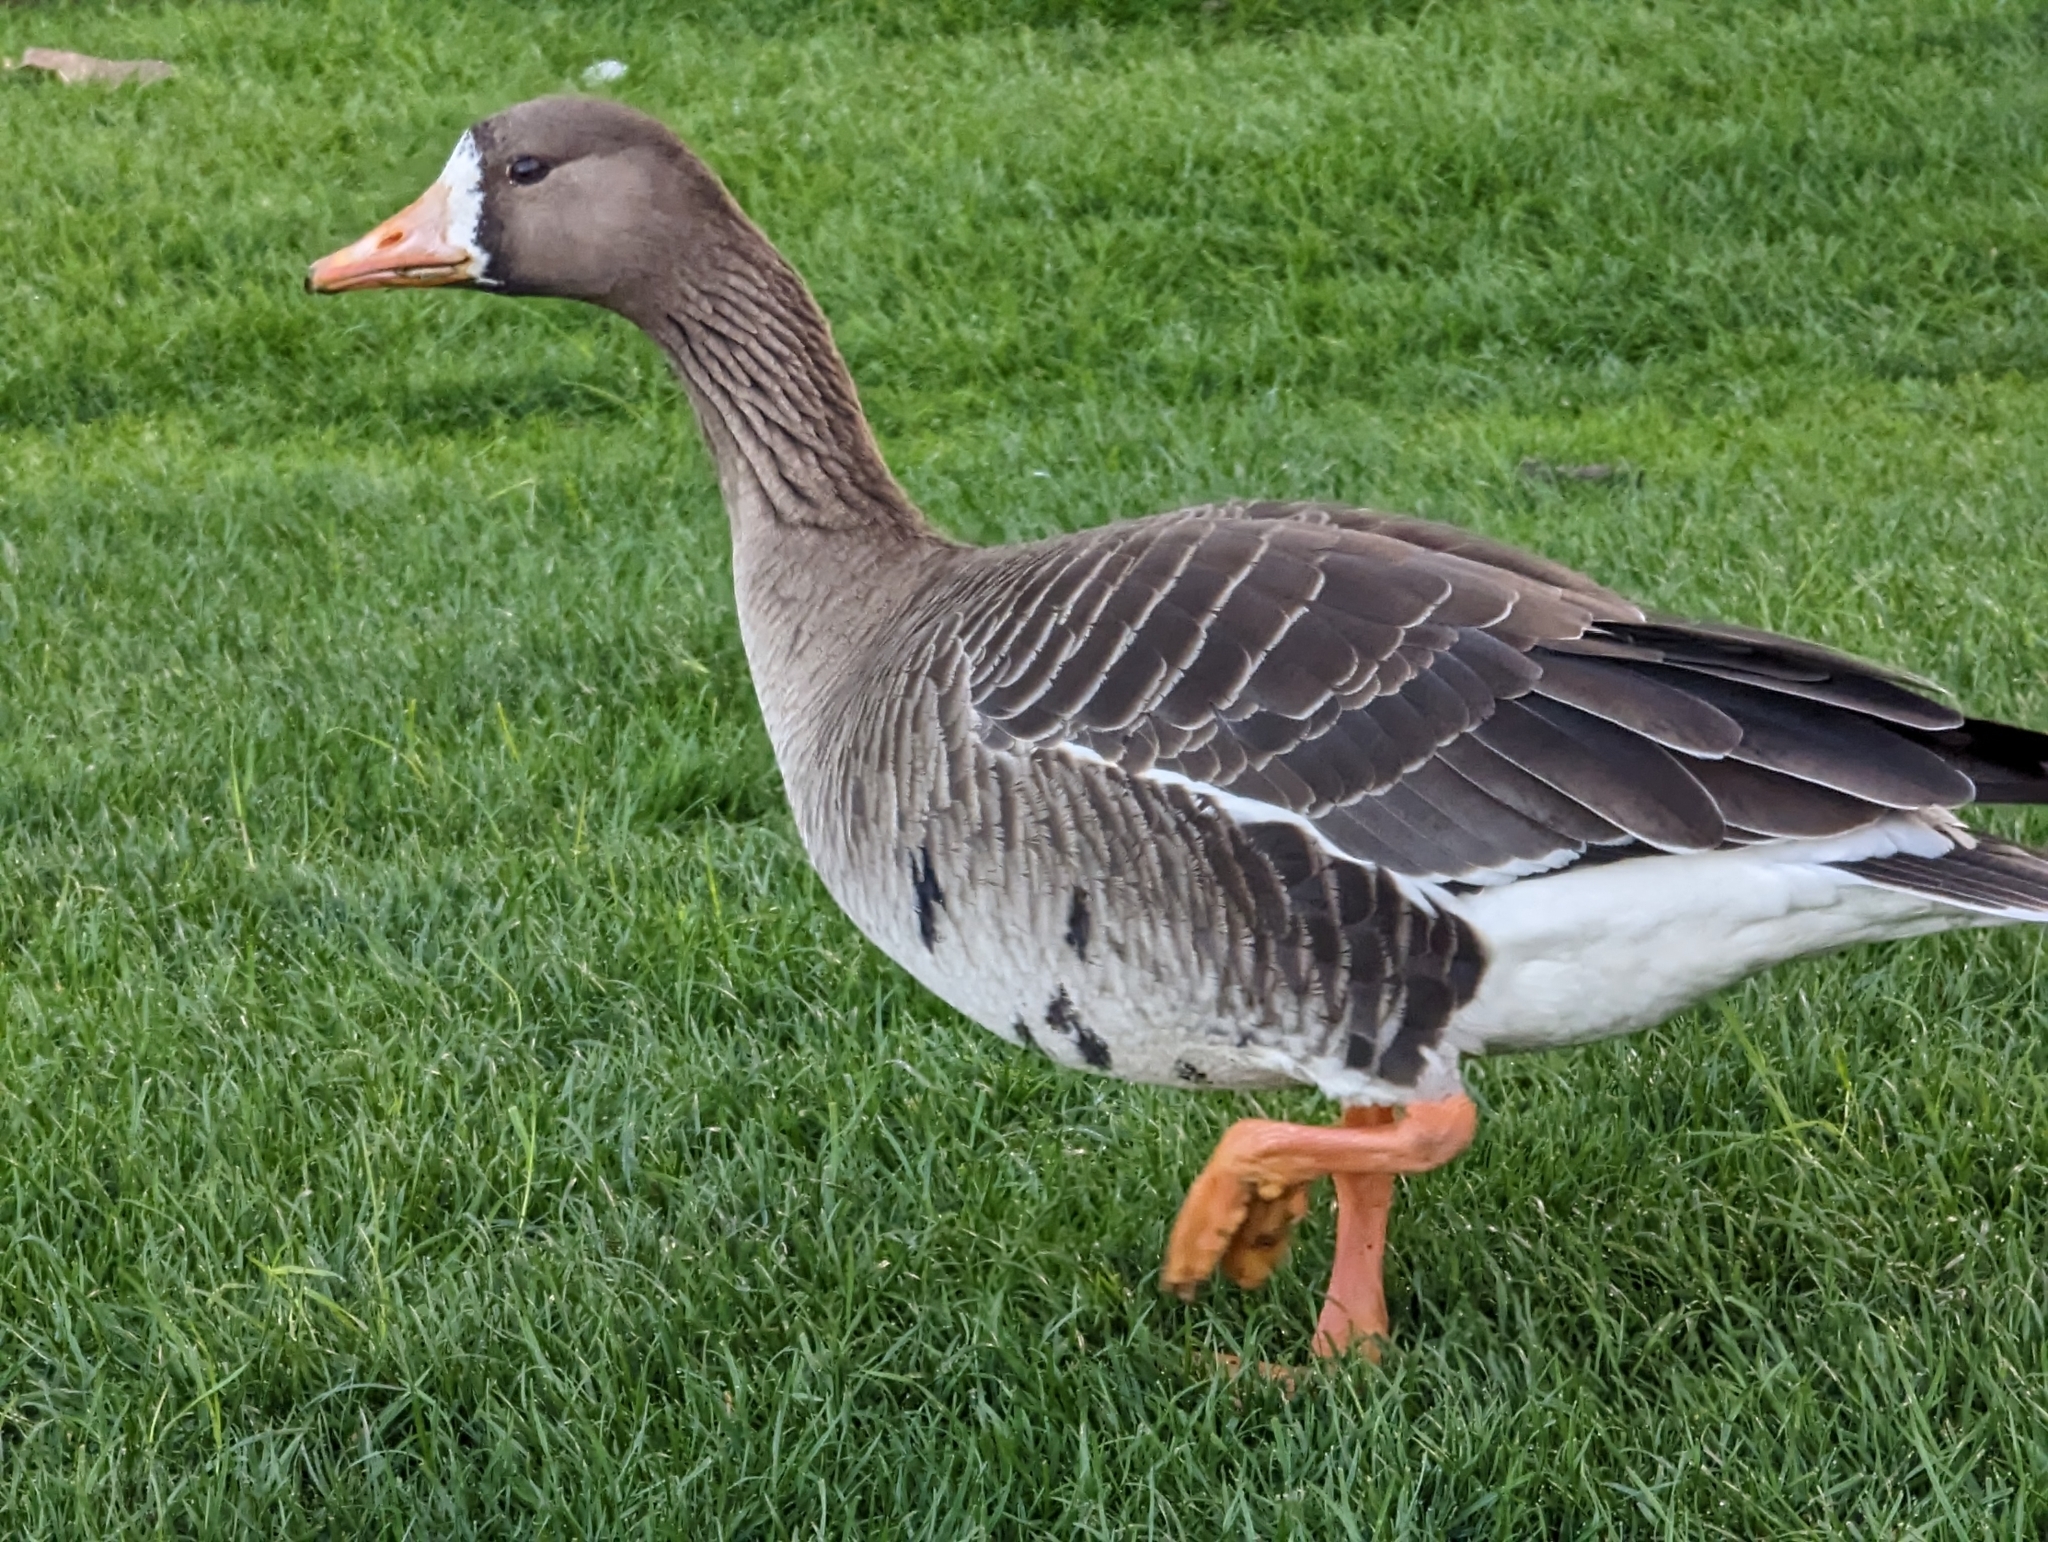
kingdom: Animalia
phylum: Chordata
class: Aves
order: Anseriformes
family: Anatidae
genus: Anser
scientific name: Anser albifrons
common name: Greater white-fronted goose
